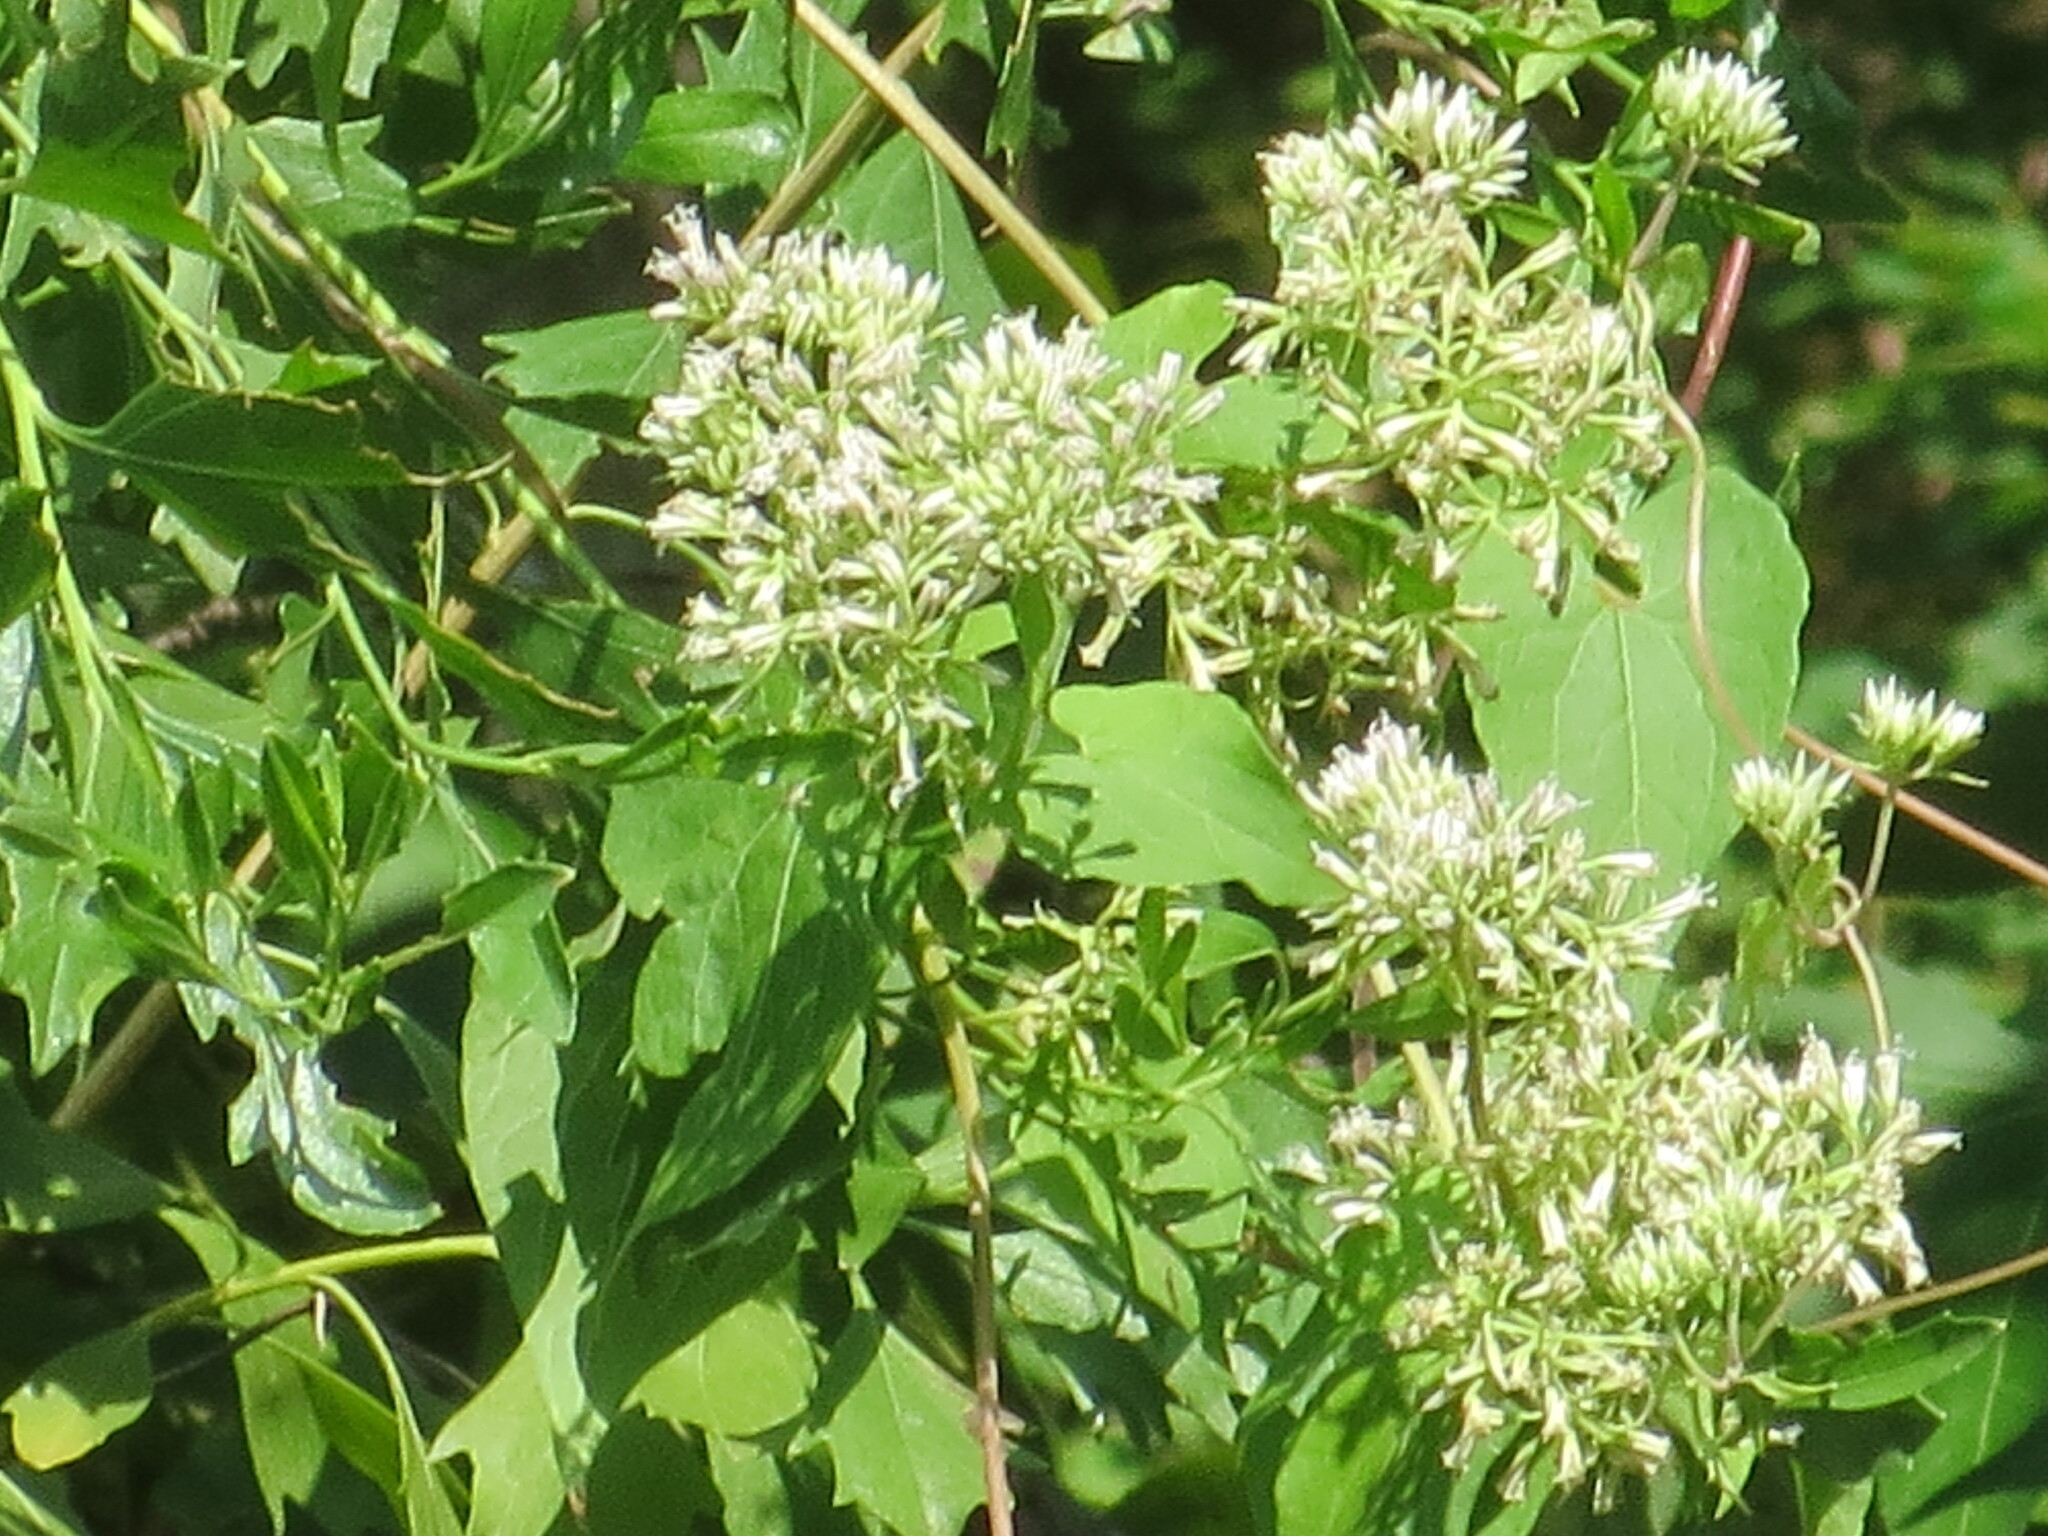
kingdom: Plantae
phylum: Tracheophyta
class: Magnoliopsida
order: Asterales
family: Asteraceae
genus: Mikania
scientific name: Mikania scandens
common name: Climbing hempvine
